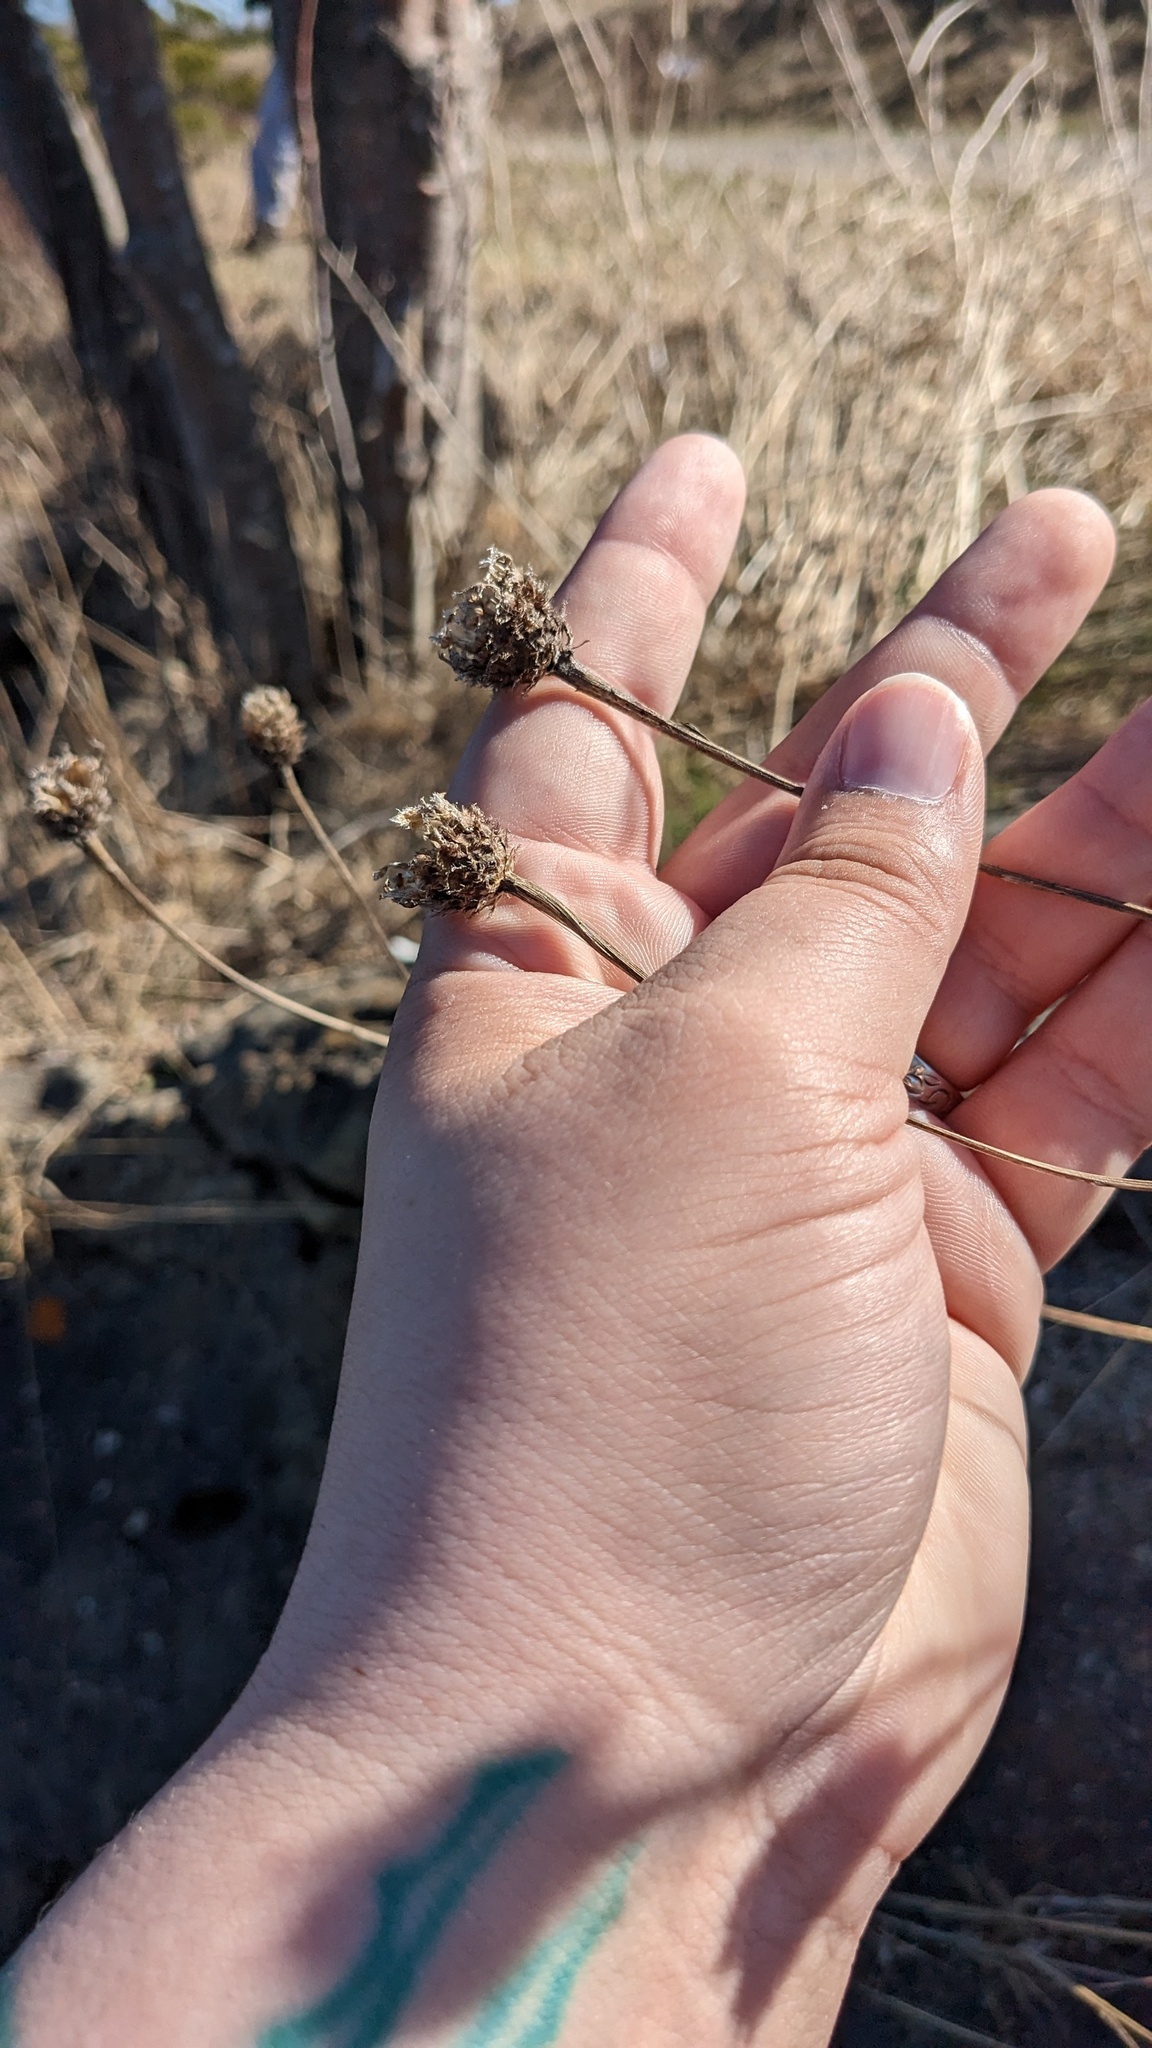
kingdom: Plantae
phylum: Tracheophyta
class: Magnoliopsida
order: Asterales
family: Asteraceae
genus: Centaurea
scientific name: Centaurea nigra
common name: Lesser knapweed
